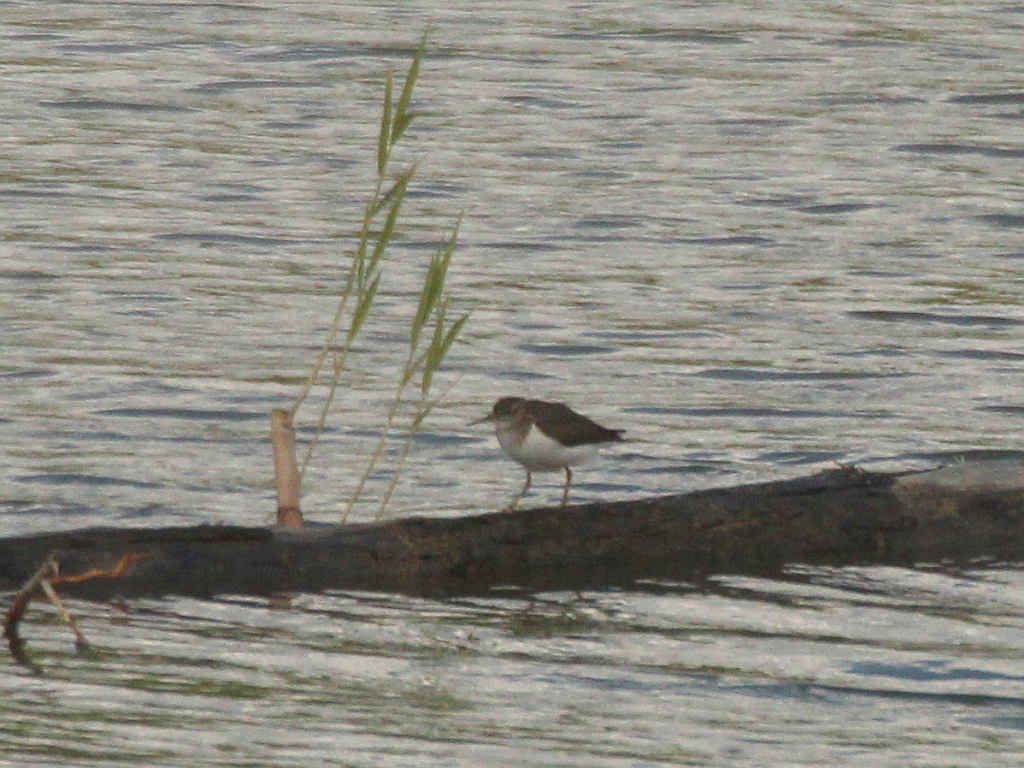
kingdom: Animalia
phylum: Chordata
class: Aves
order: Charadriiformes
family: Scolopacidae
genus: Actitis
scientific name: Actitis hypoleucos
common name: Common sandpiper
